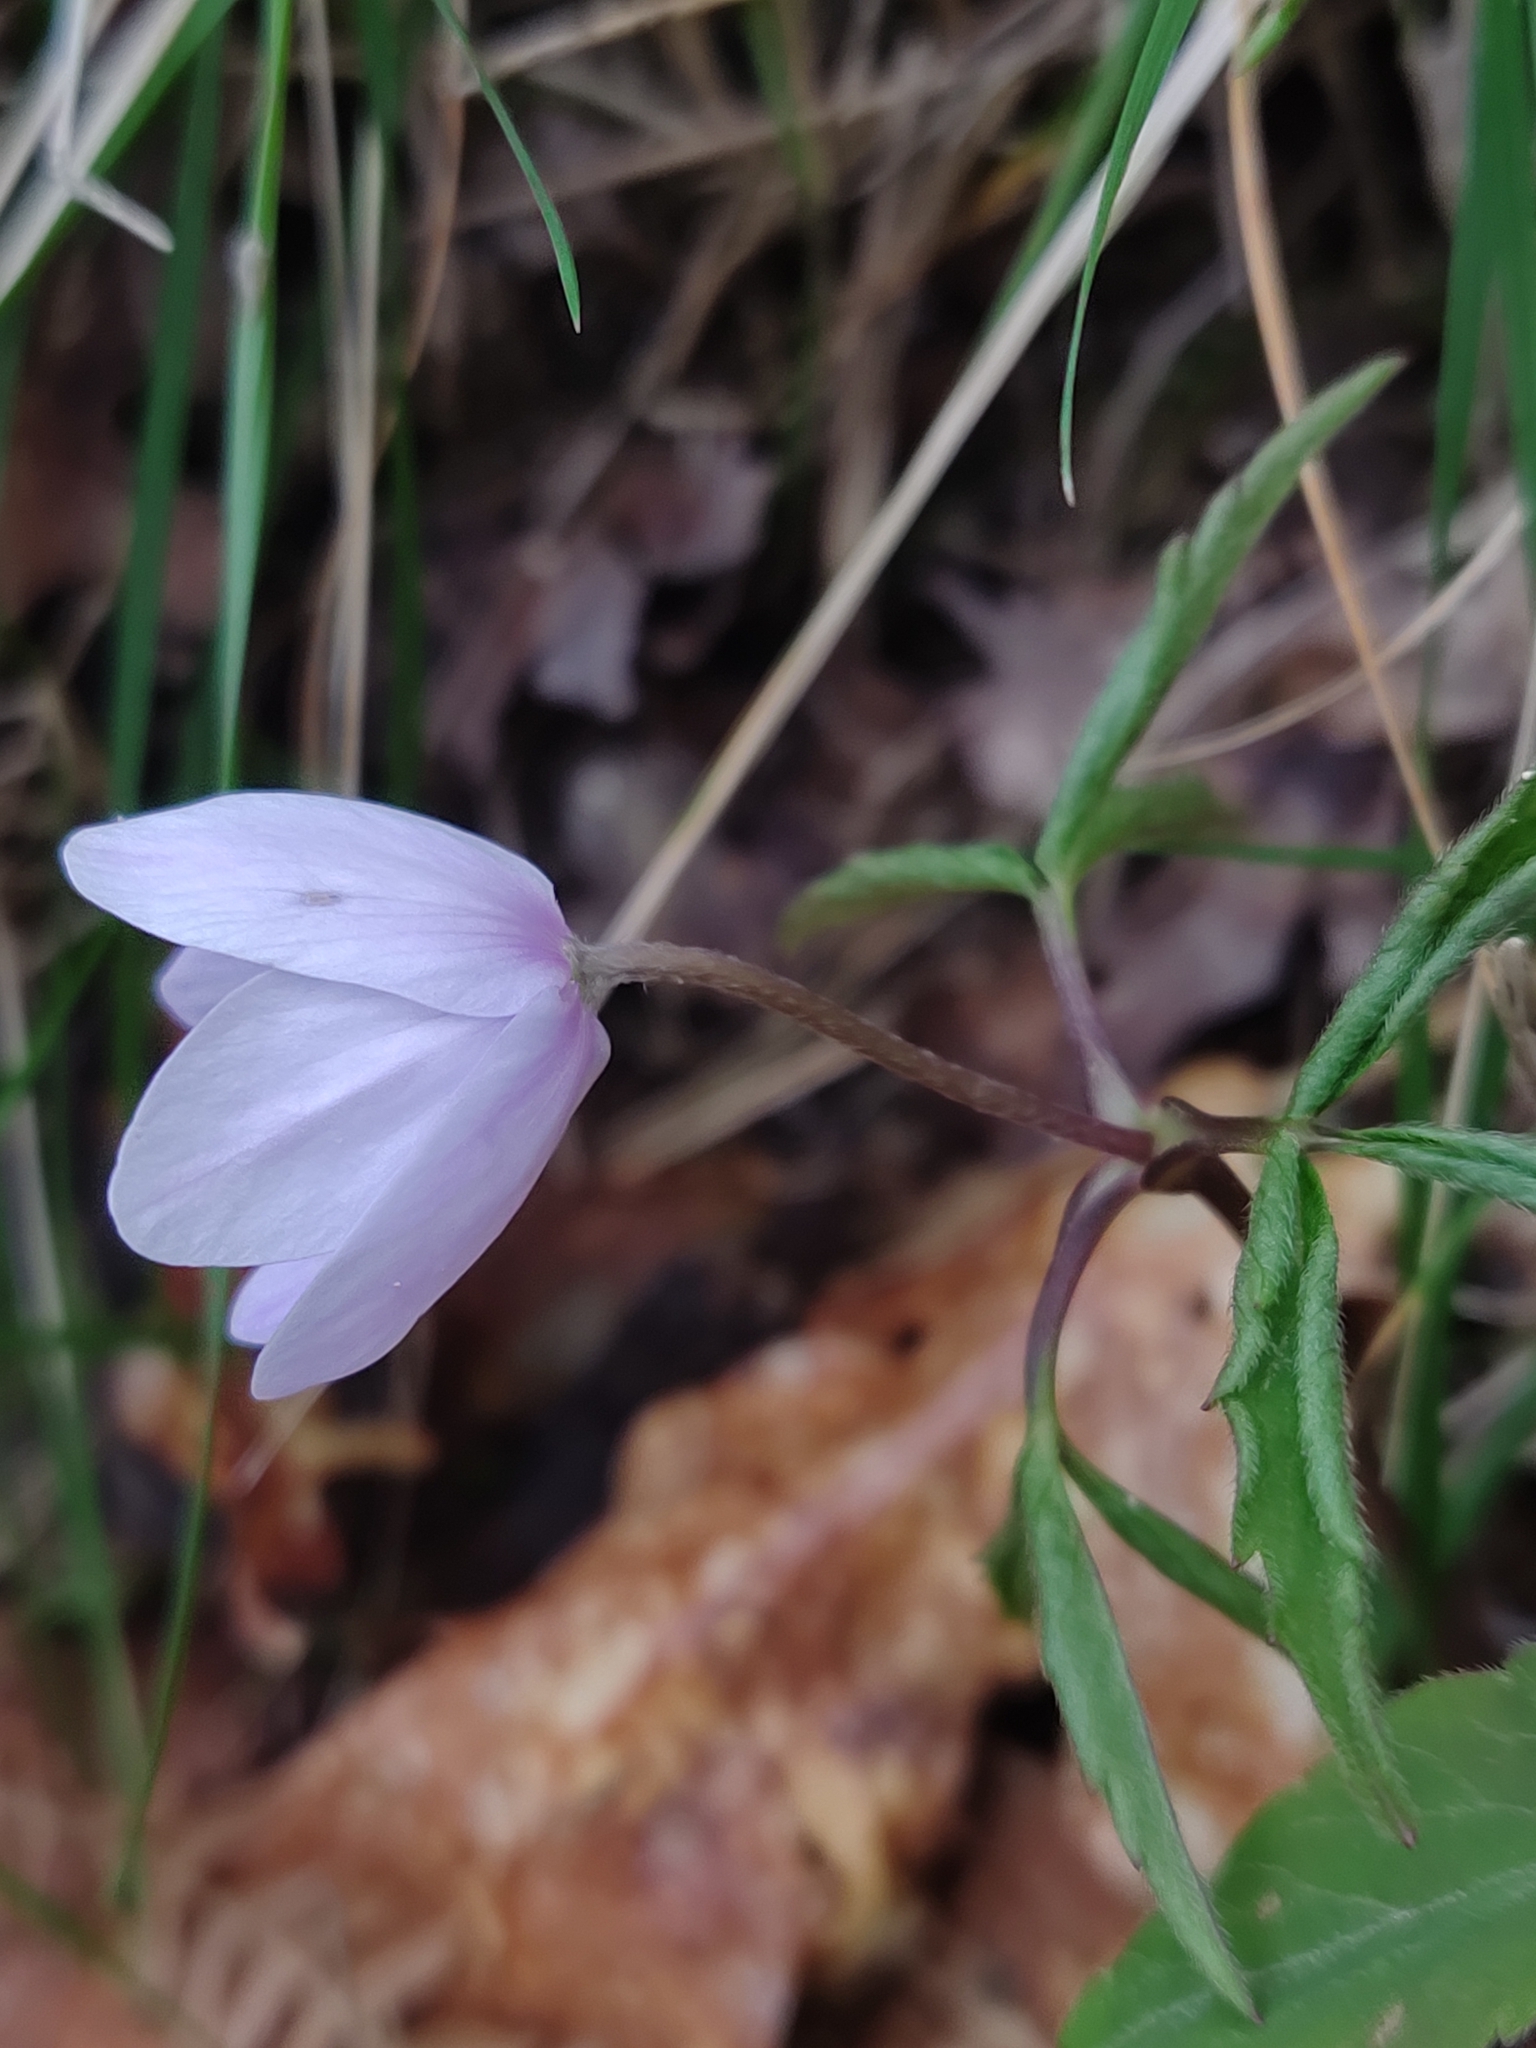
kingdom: Plantae
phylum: Tracheophyta
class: Magnoliopsida
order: Ranunculales
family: Ranunculaceae
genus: Anemone
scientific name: Anemone trifolia
